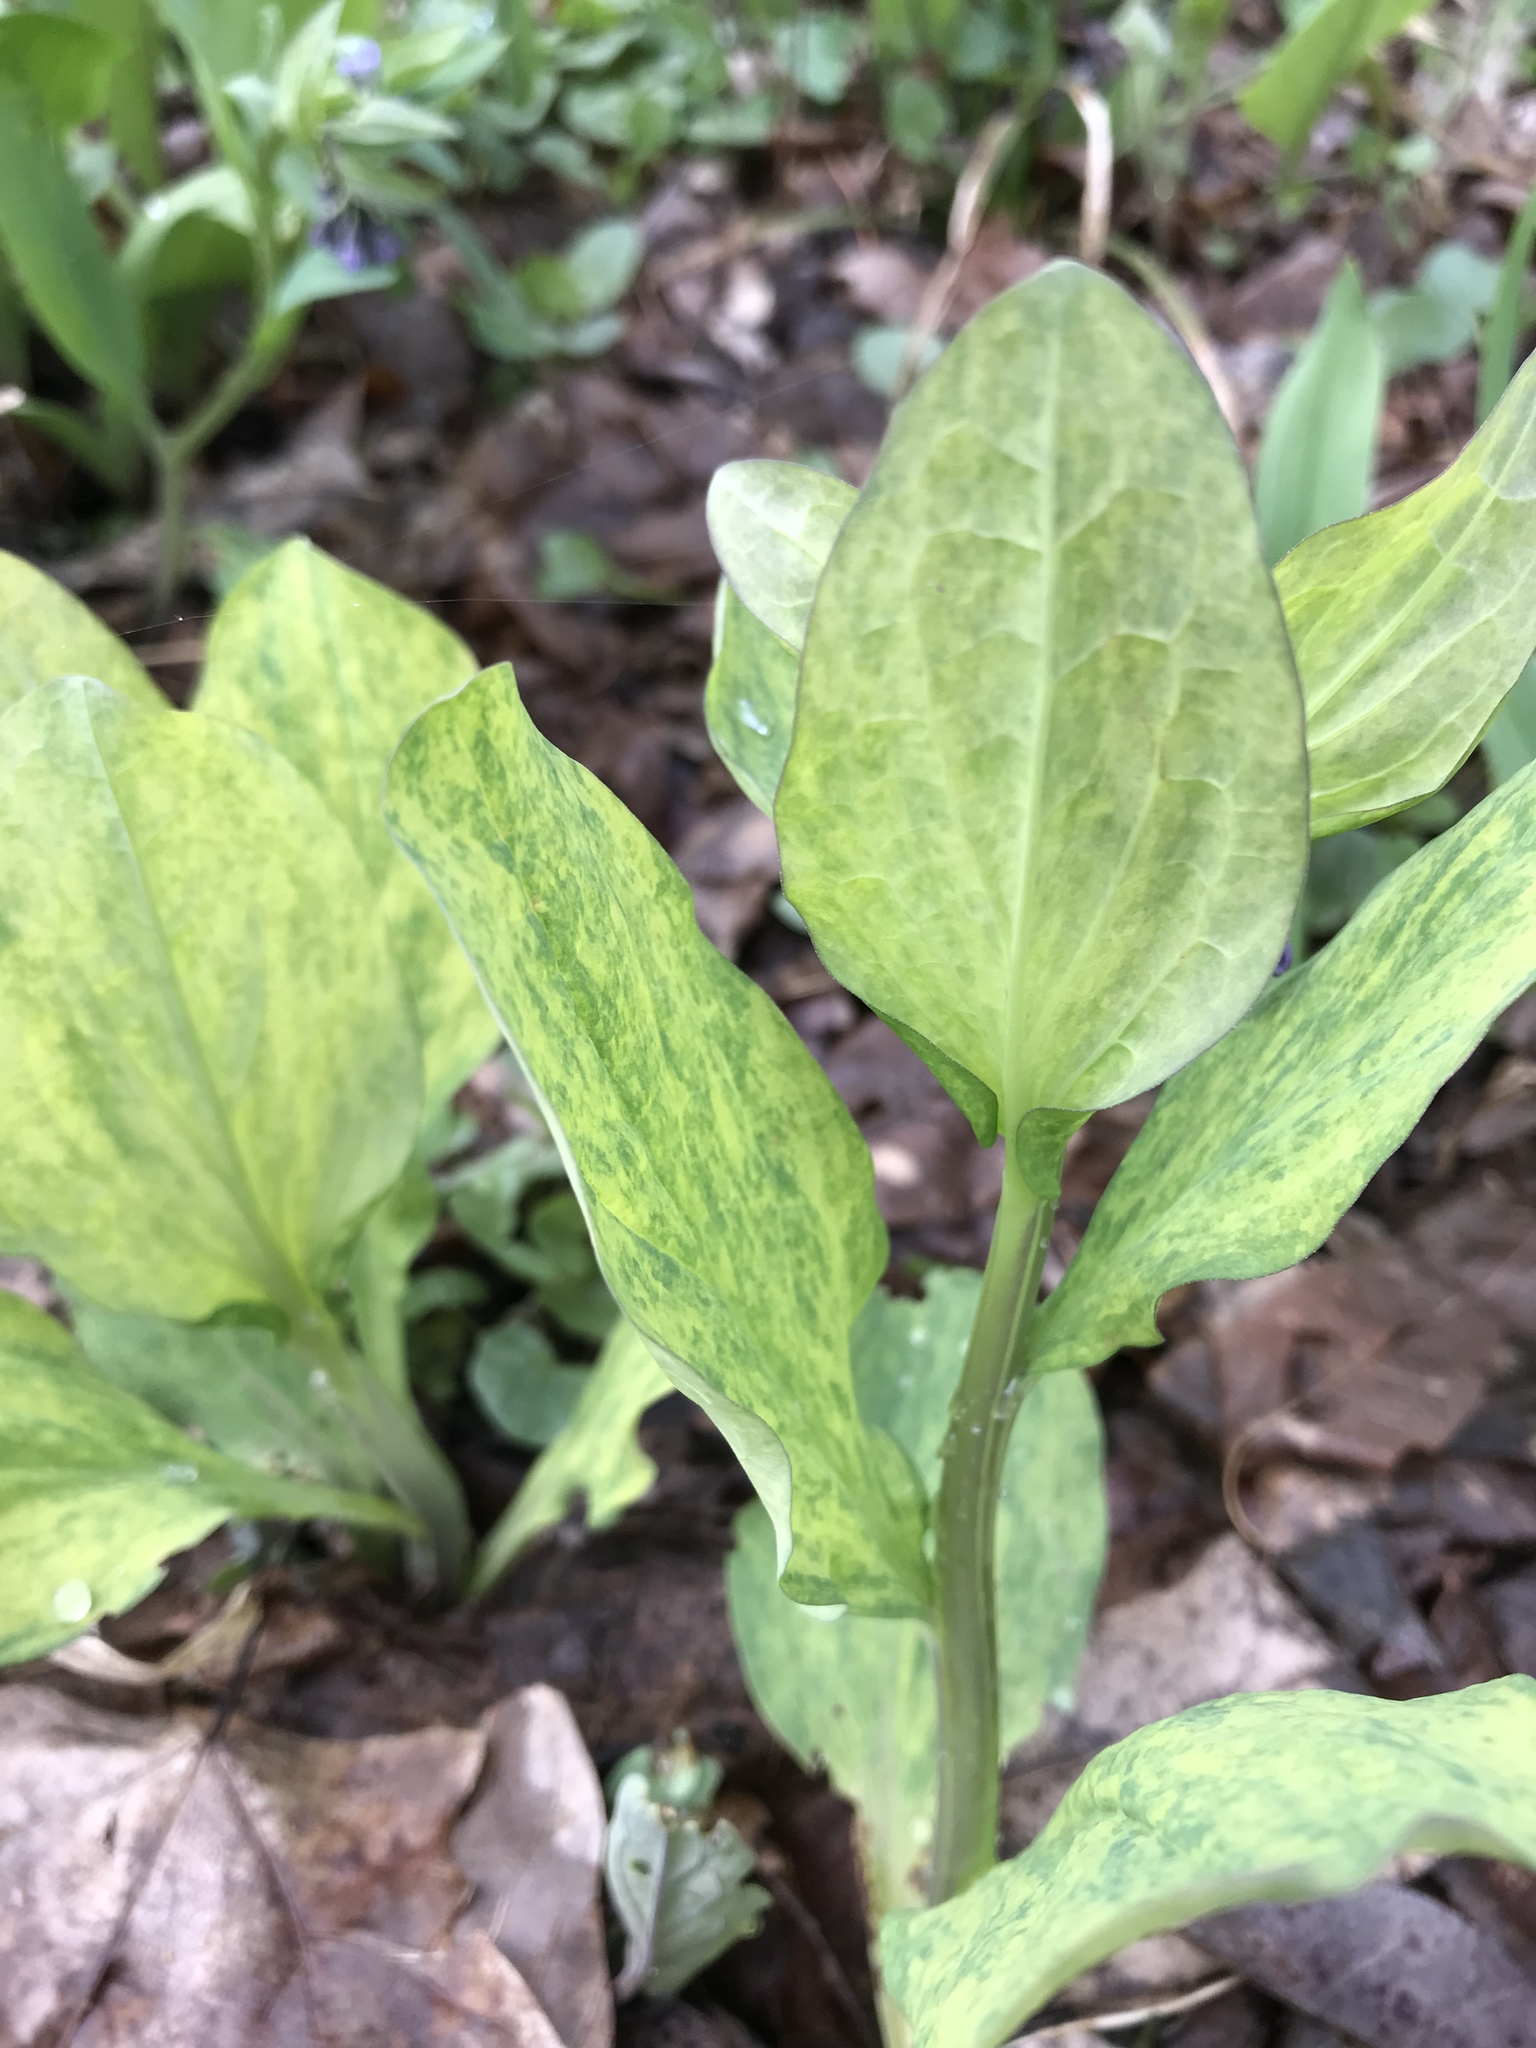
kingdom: Viruses
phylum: Kitrinoviricota
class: Alsuviricetes
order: Martellivirales
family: Virgaviridae
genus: Tobravirus
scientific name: Tobravirus Tobacco rattle virus
